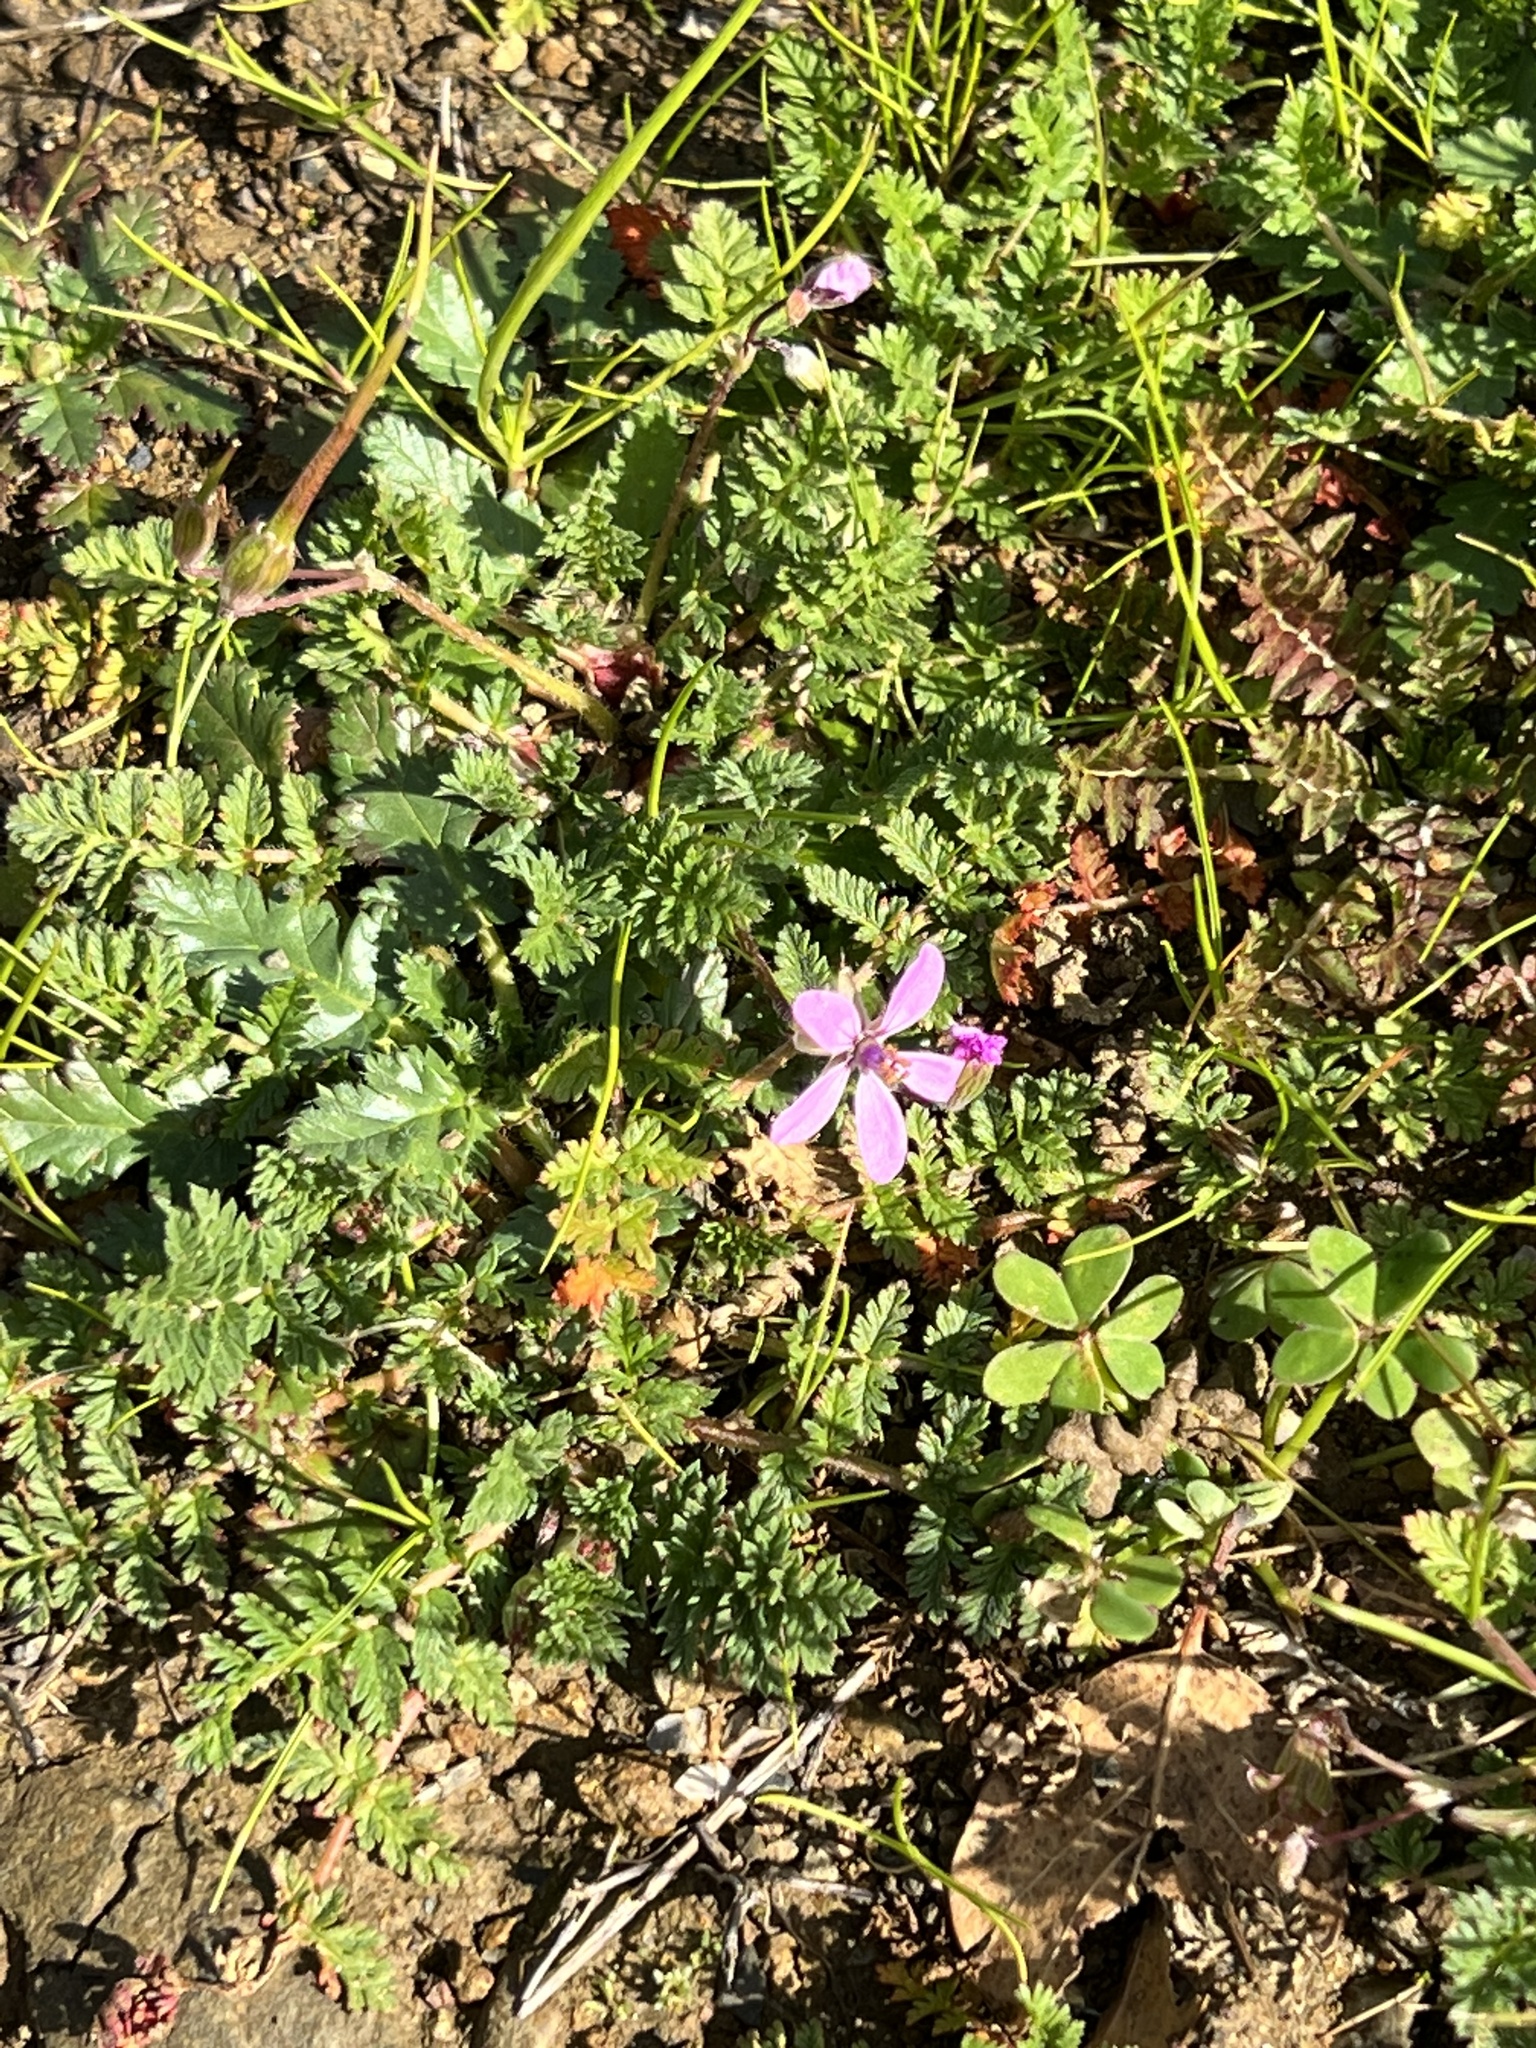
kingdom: Plantae
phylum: Tracheophyta
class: Magnoliopsida
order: Geraniales
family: Geraniaceae
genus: Erodium
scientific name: Erodium cicutarium
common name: Common stork's-bill
